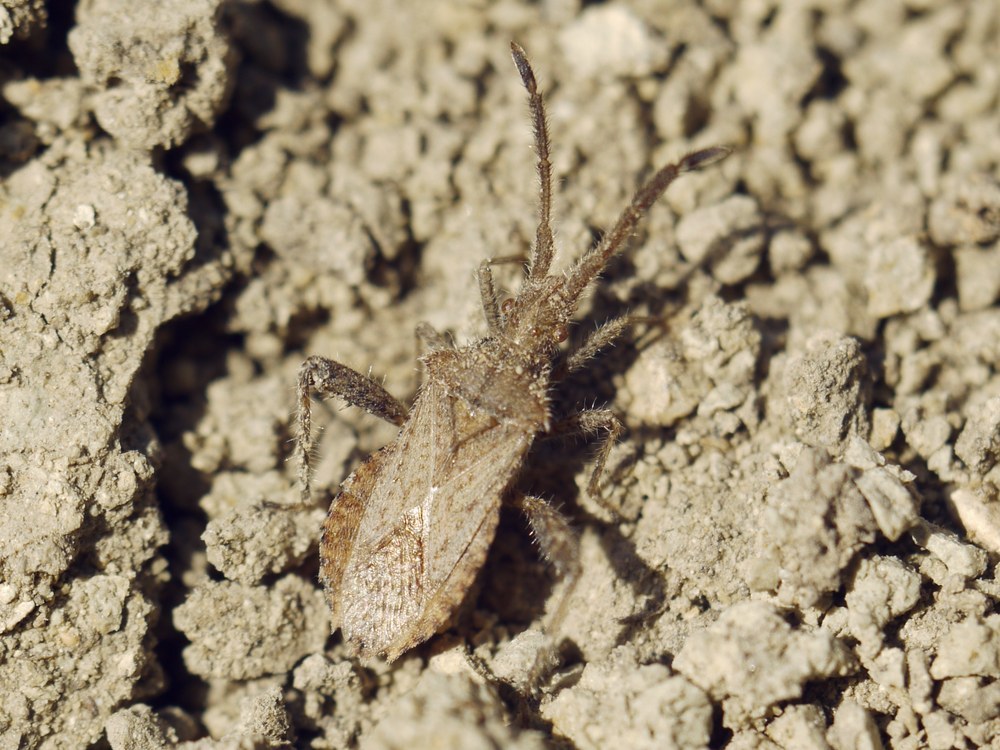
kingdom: Animalia
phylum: Arthropoda
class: Insecta
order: Hemiptera
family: Coreidae
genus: Coriomeris
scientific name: Coriomeris hirticornis
